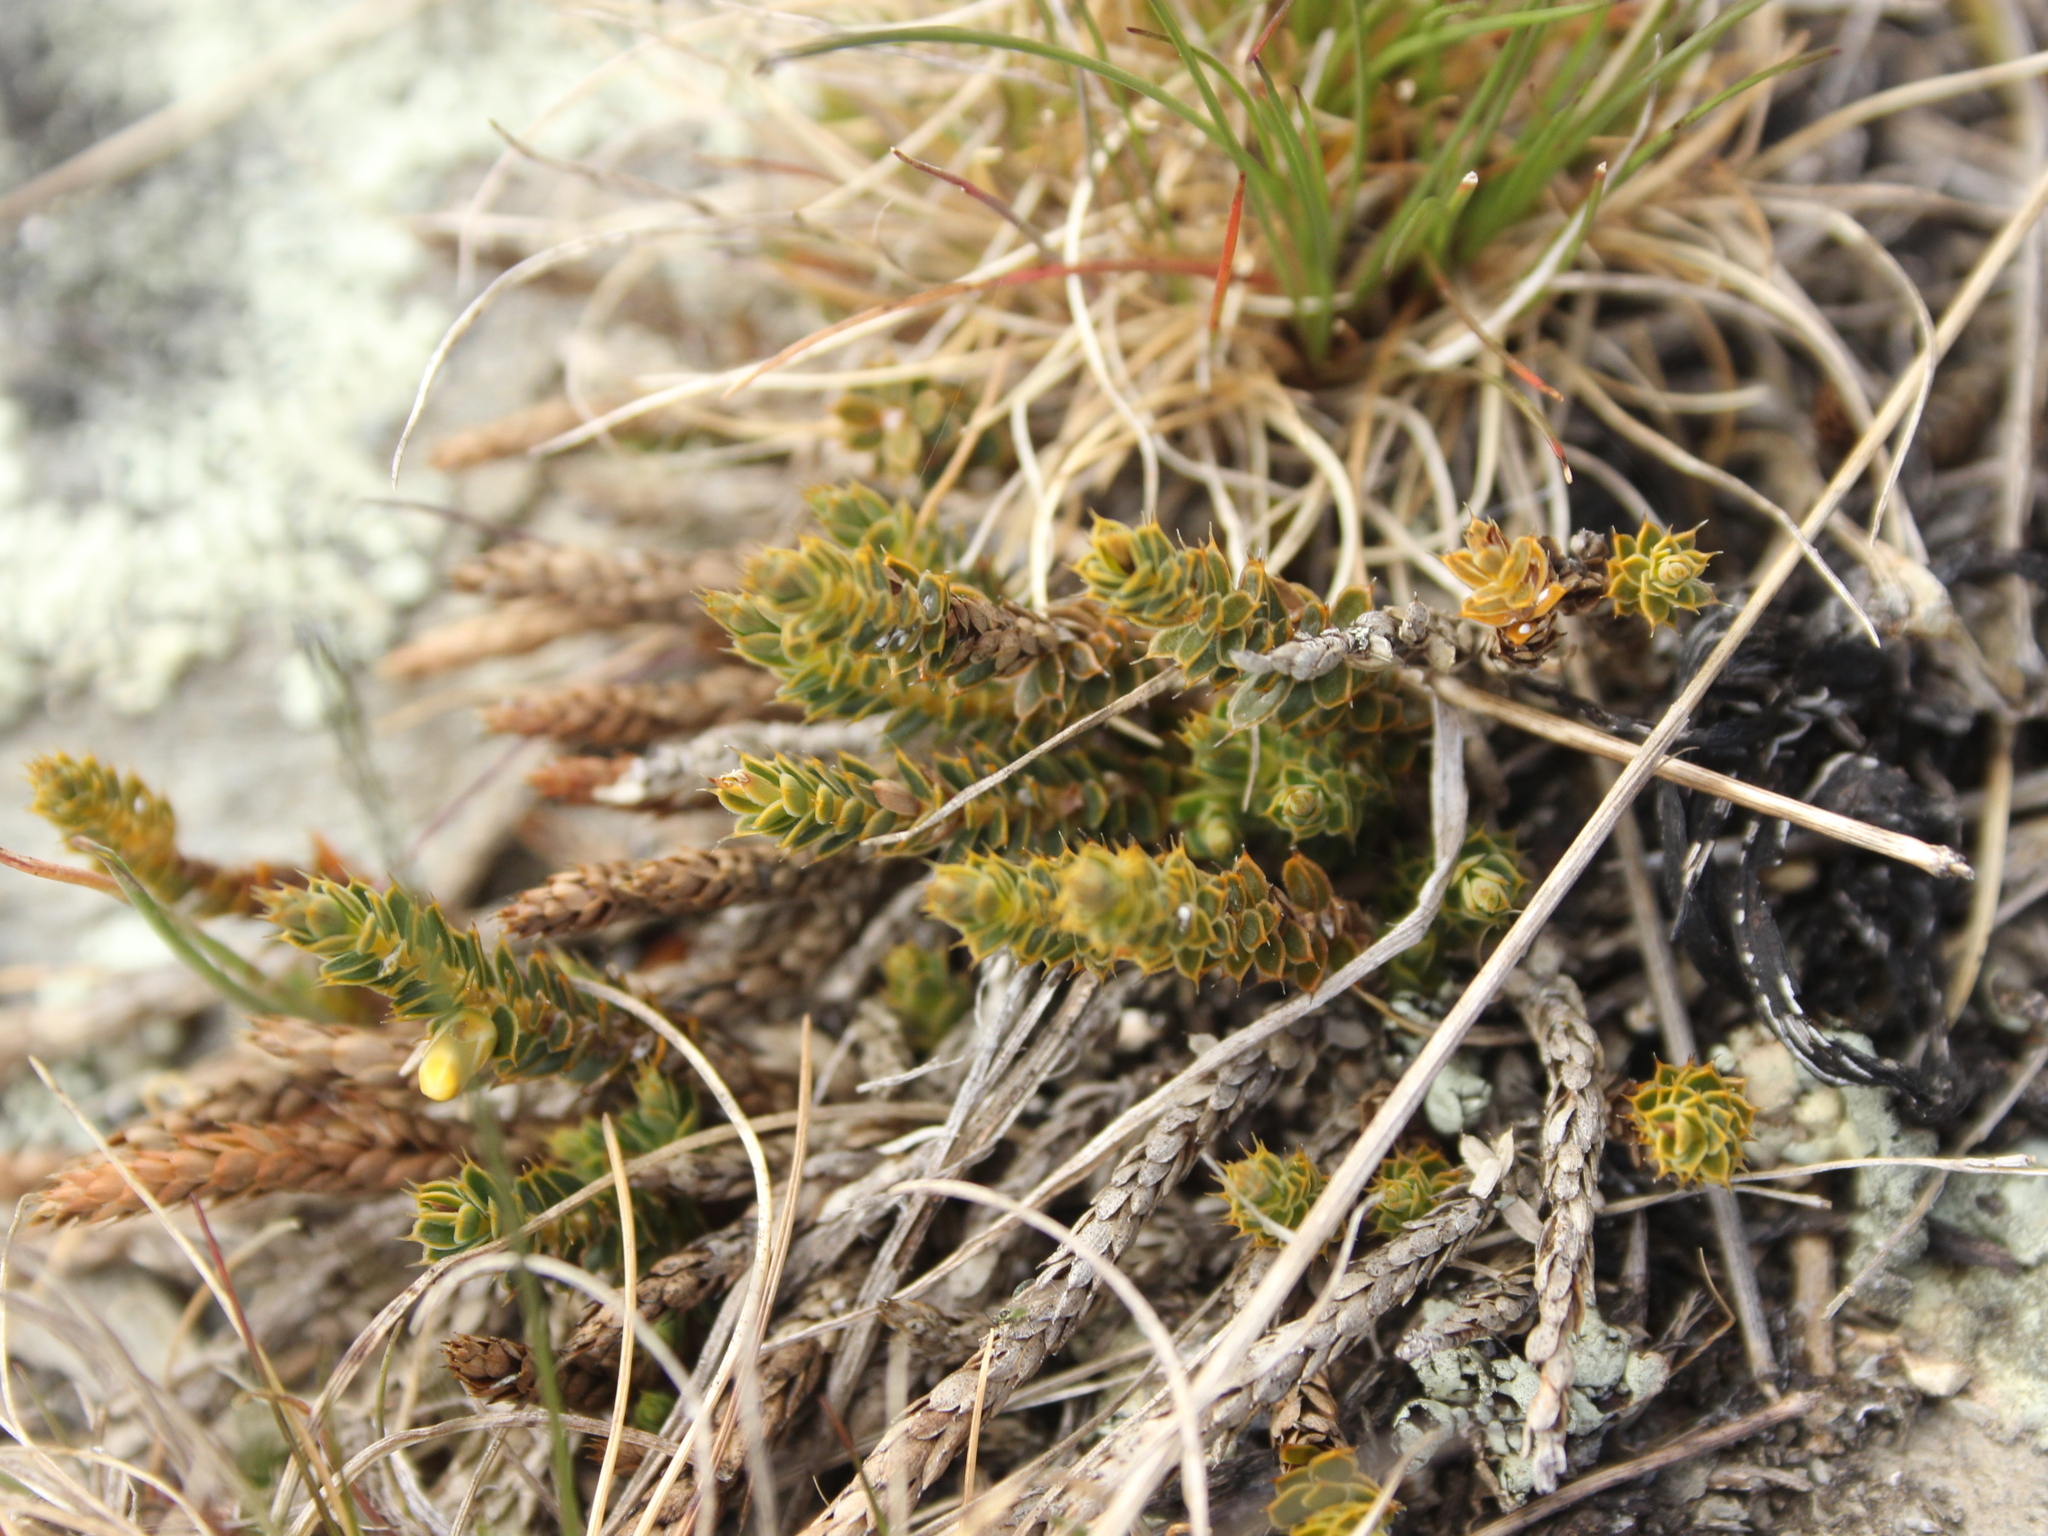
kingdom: Plantae
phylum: Tracheophyta
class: Magnoliopsida
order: Ericales
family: Ericaceae
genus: Styphelia
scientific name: Styphelia nesophila
